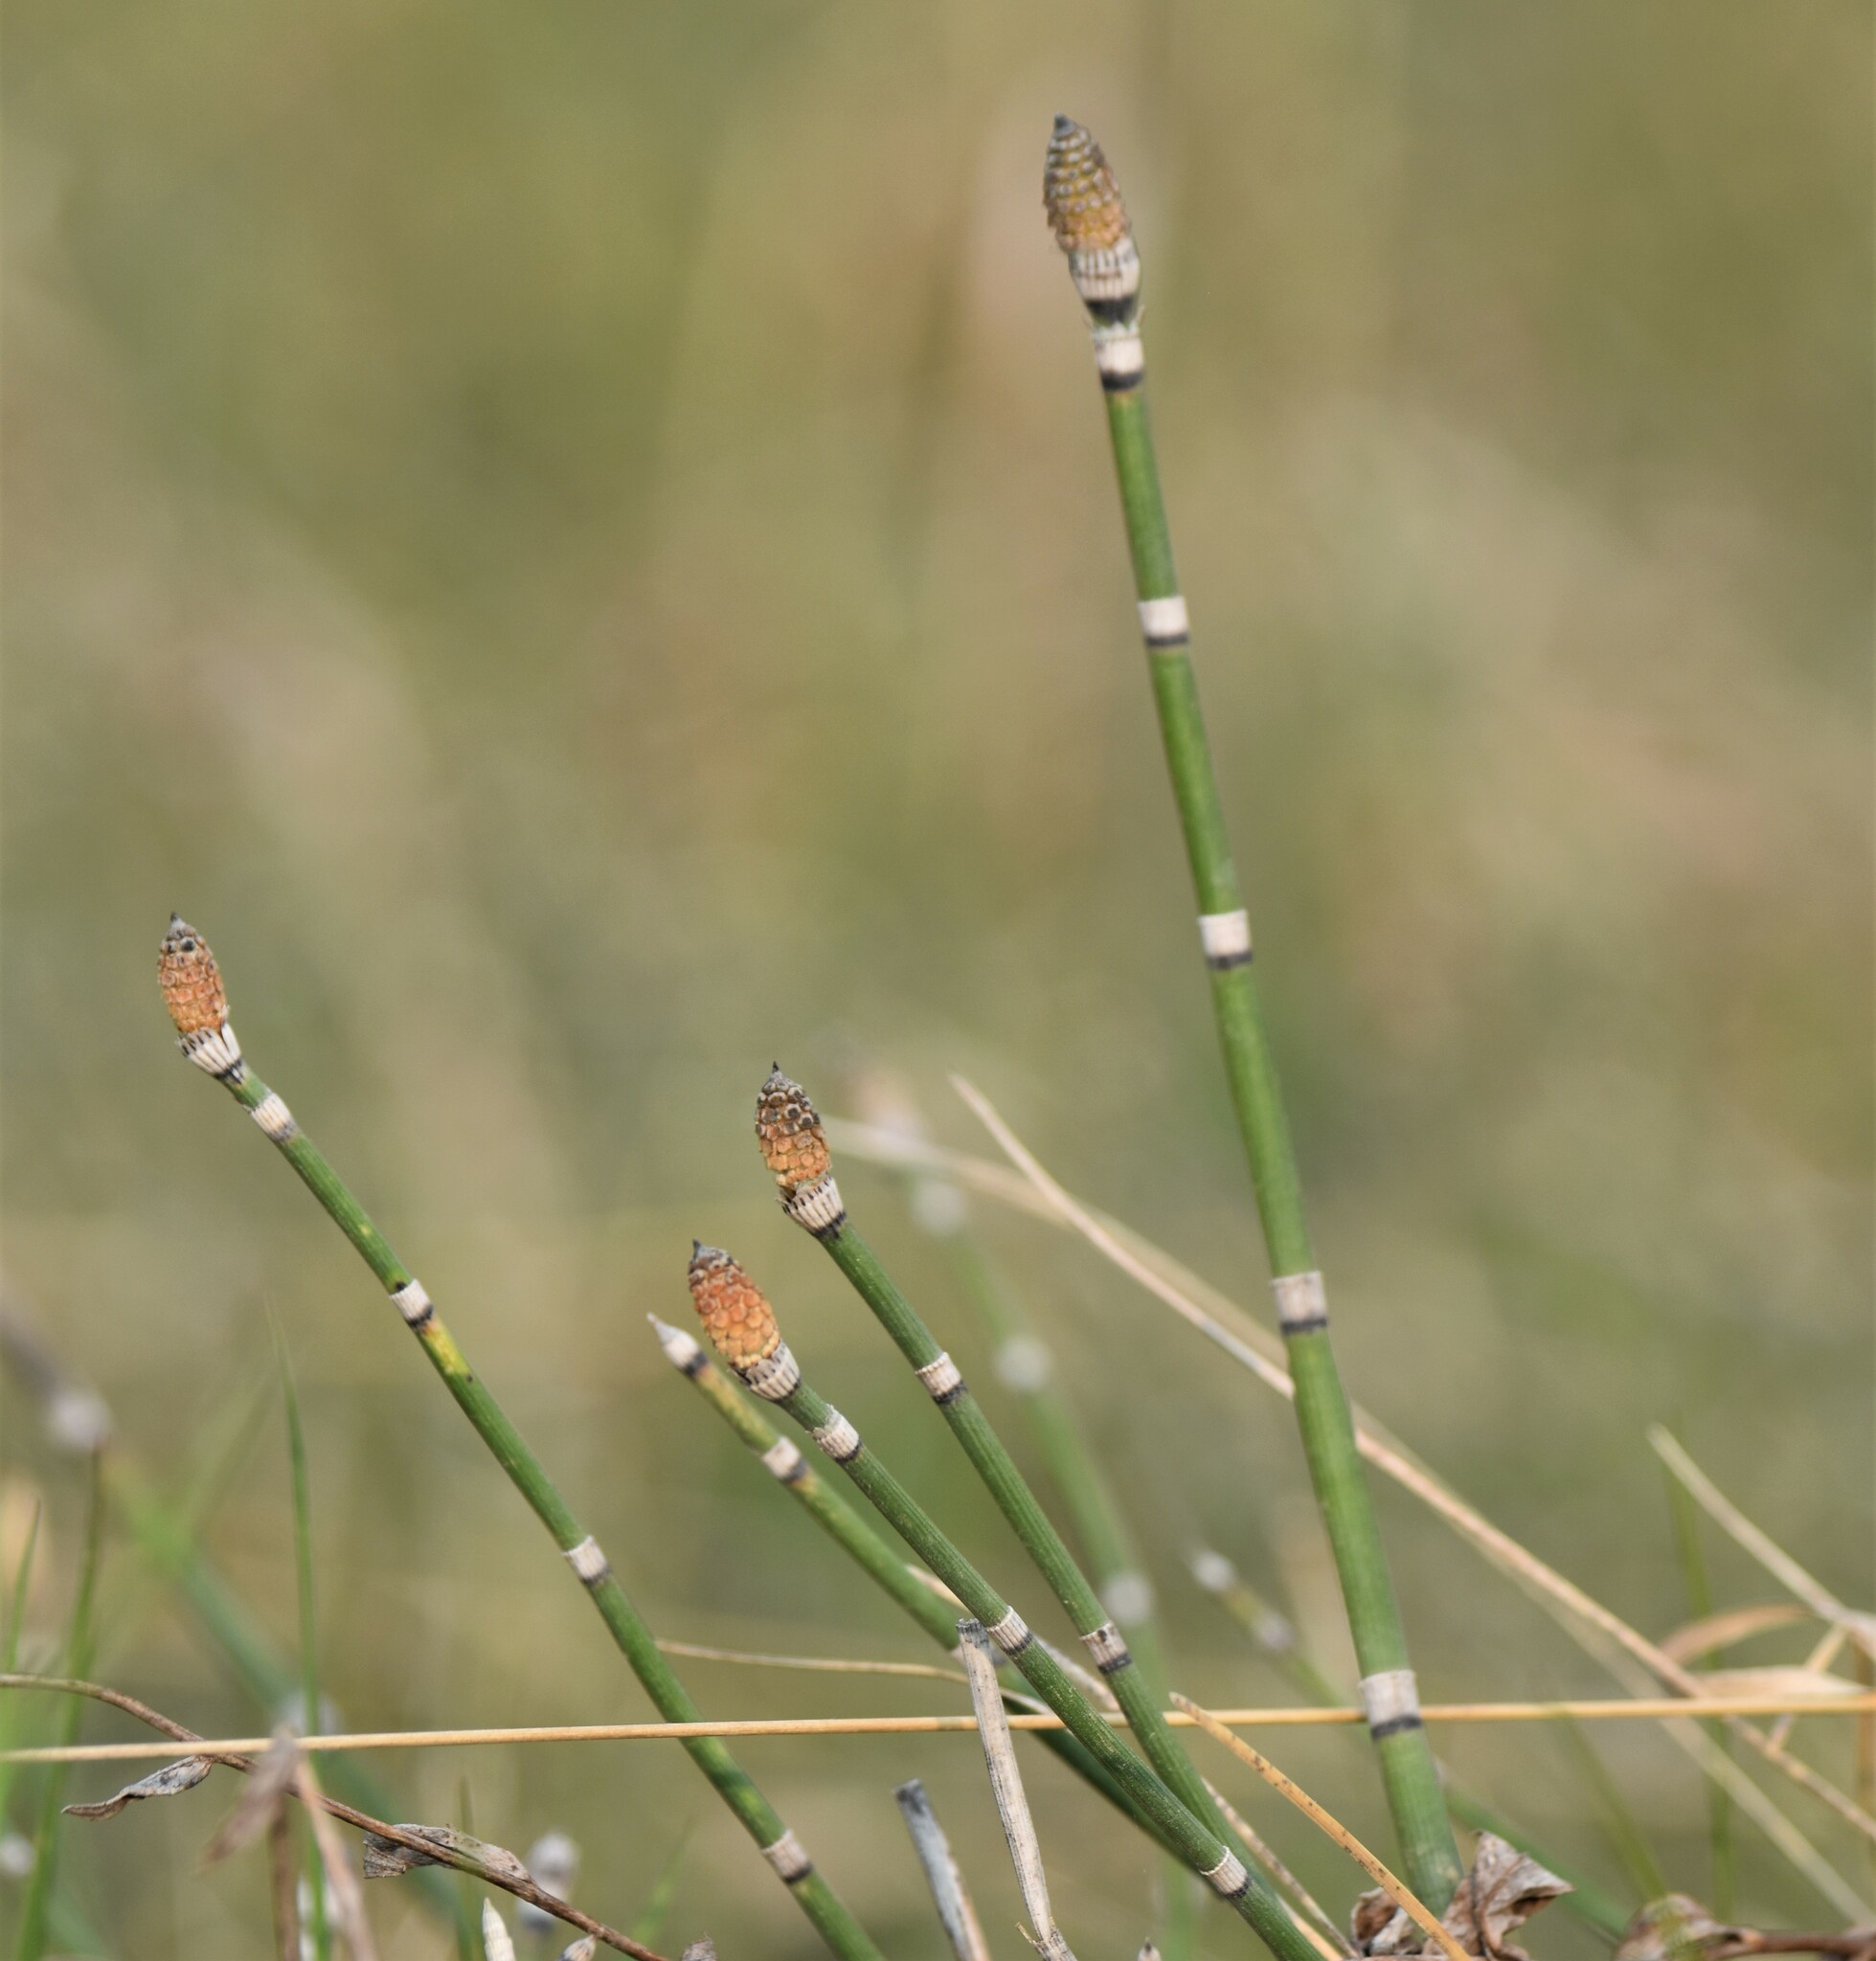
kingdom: Plantae
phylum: Tracheophyta
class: Polypodiopsida
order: Equisetales
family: Equisetaceae
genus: Equisetum
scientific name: Equisetum hyemale
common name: Rough horsetail
